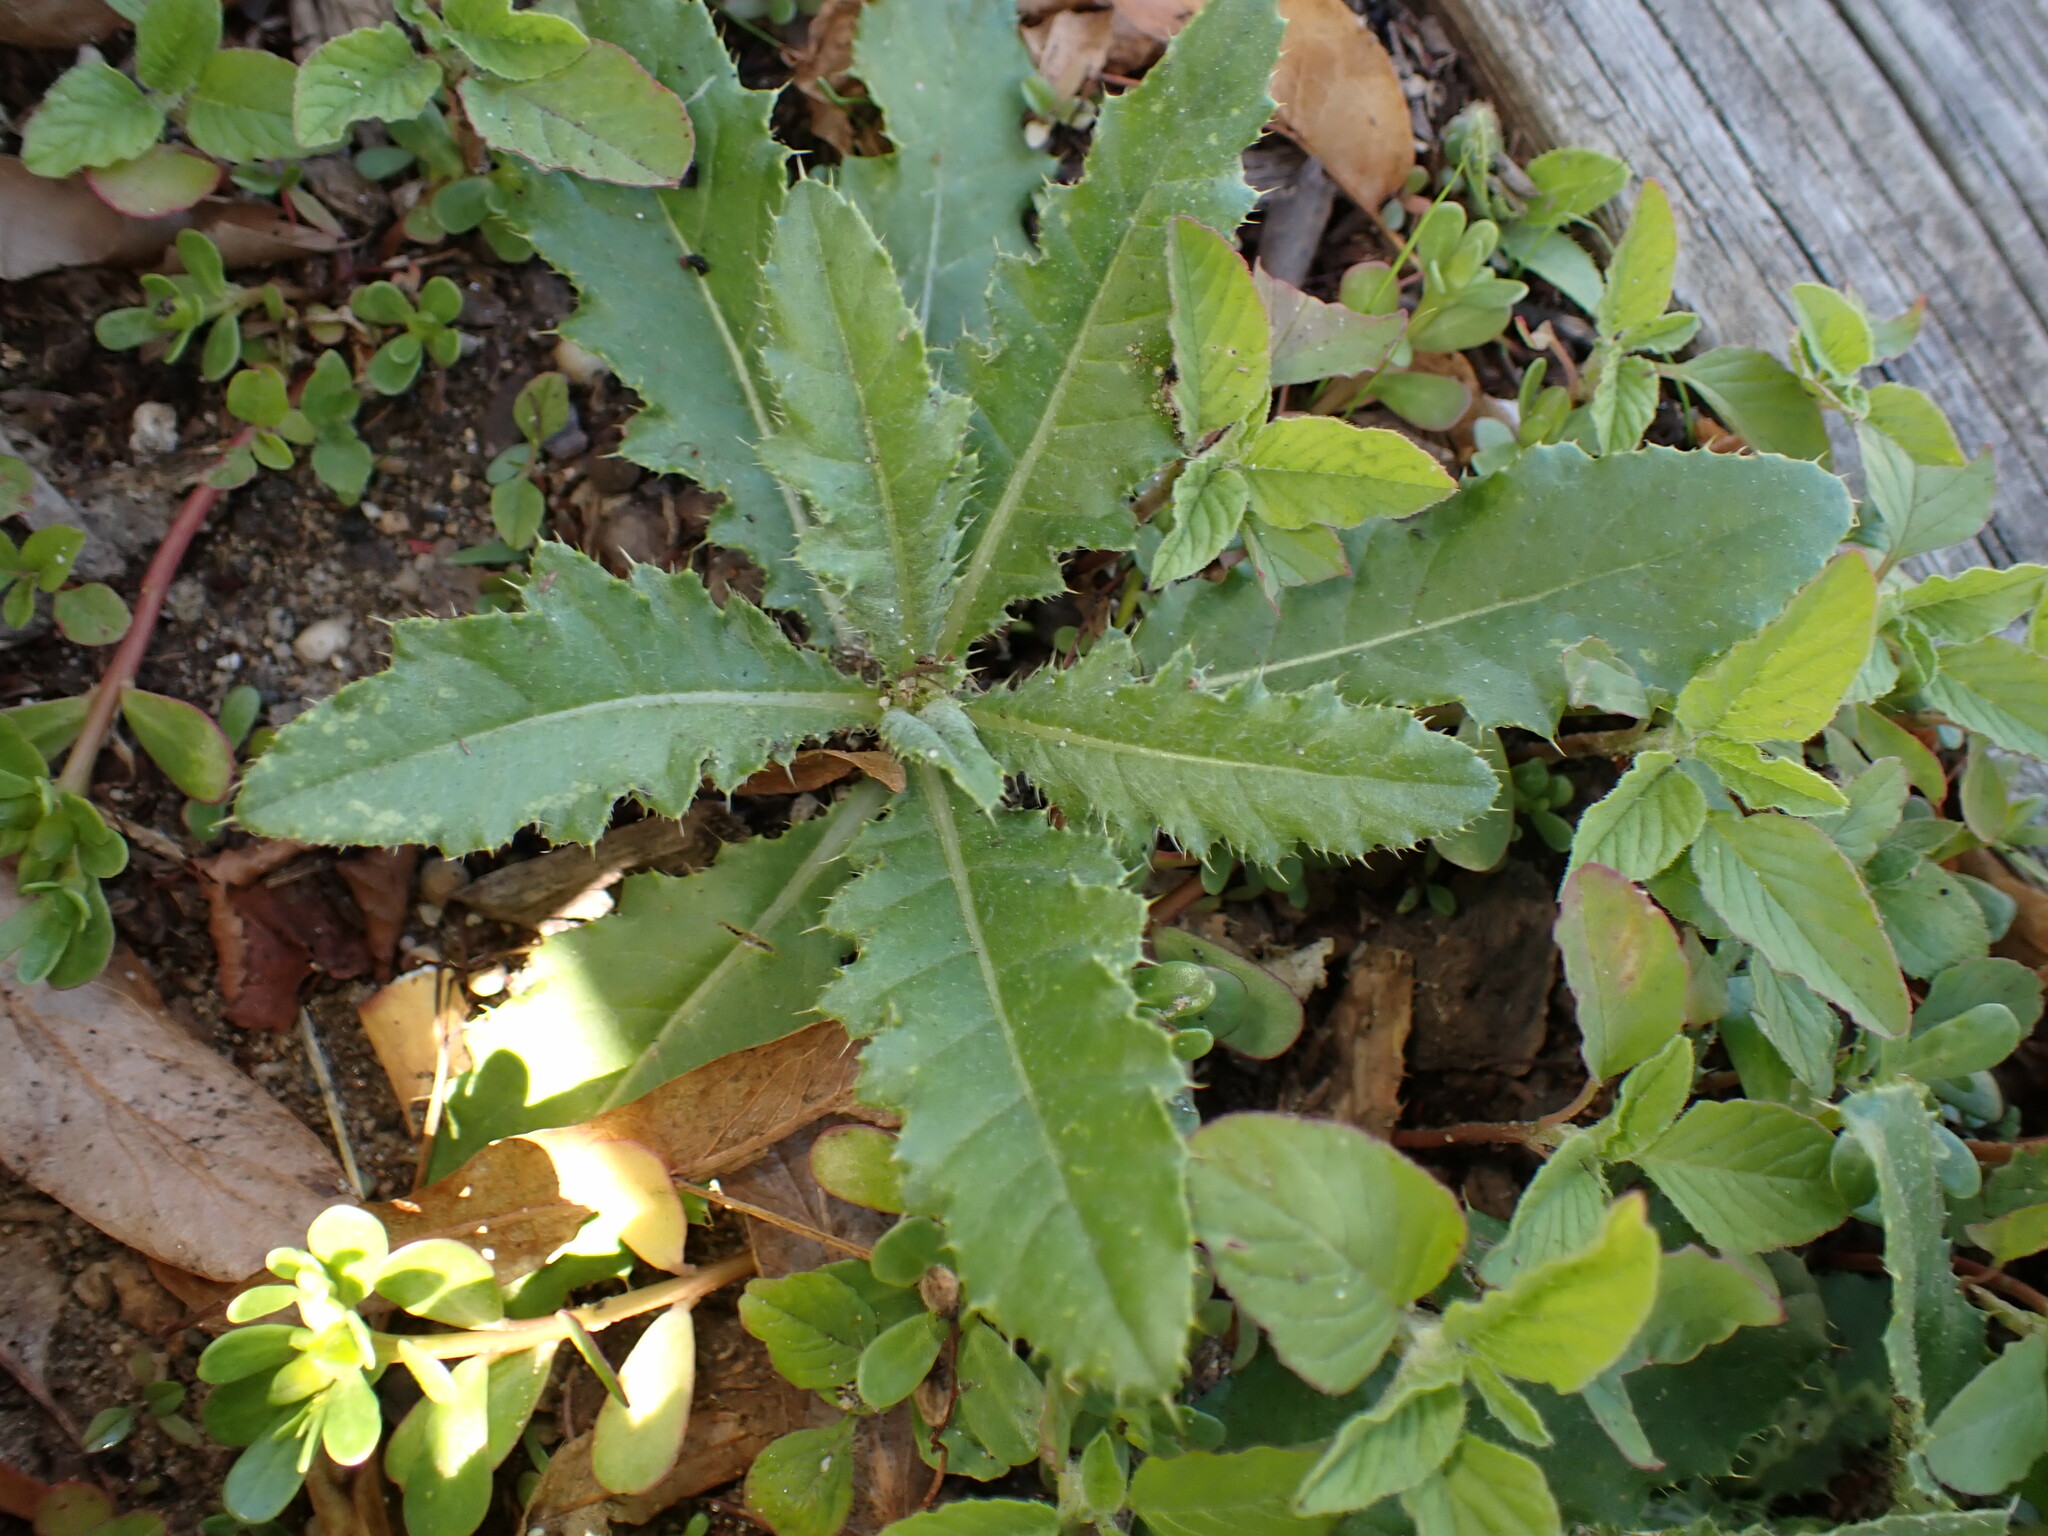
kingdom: Plantae
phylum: Tracheophyta
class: Magnoliopsida
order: Asterales
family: Asteraceae
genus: Cirsium
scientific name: Cirsium arvense
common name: Creeping thistle
